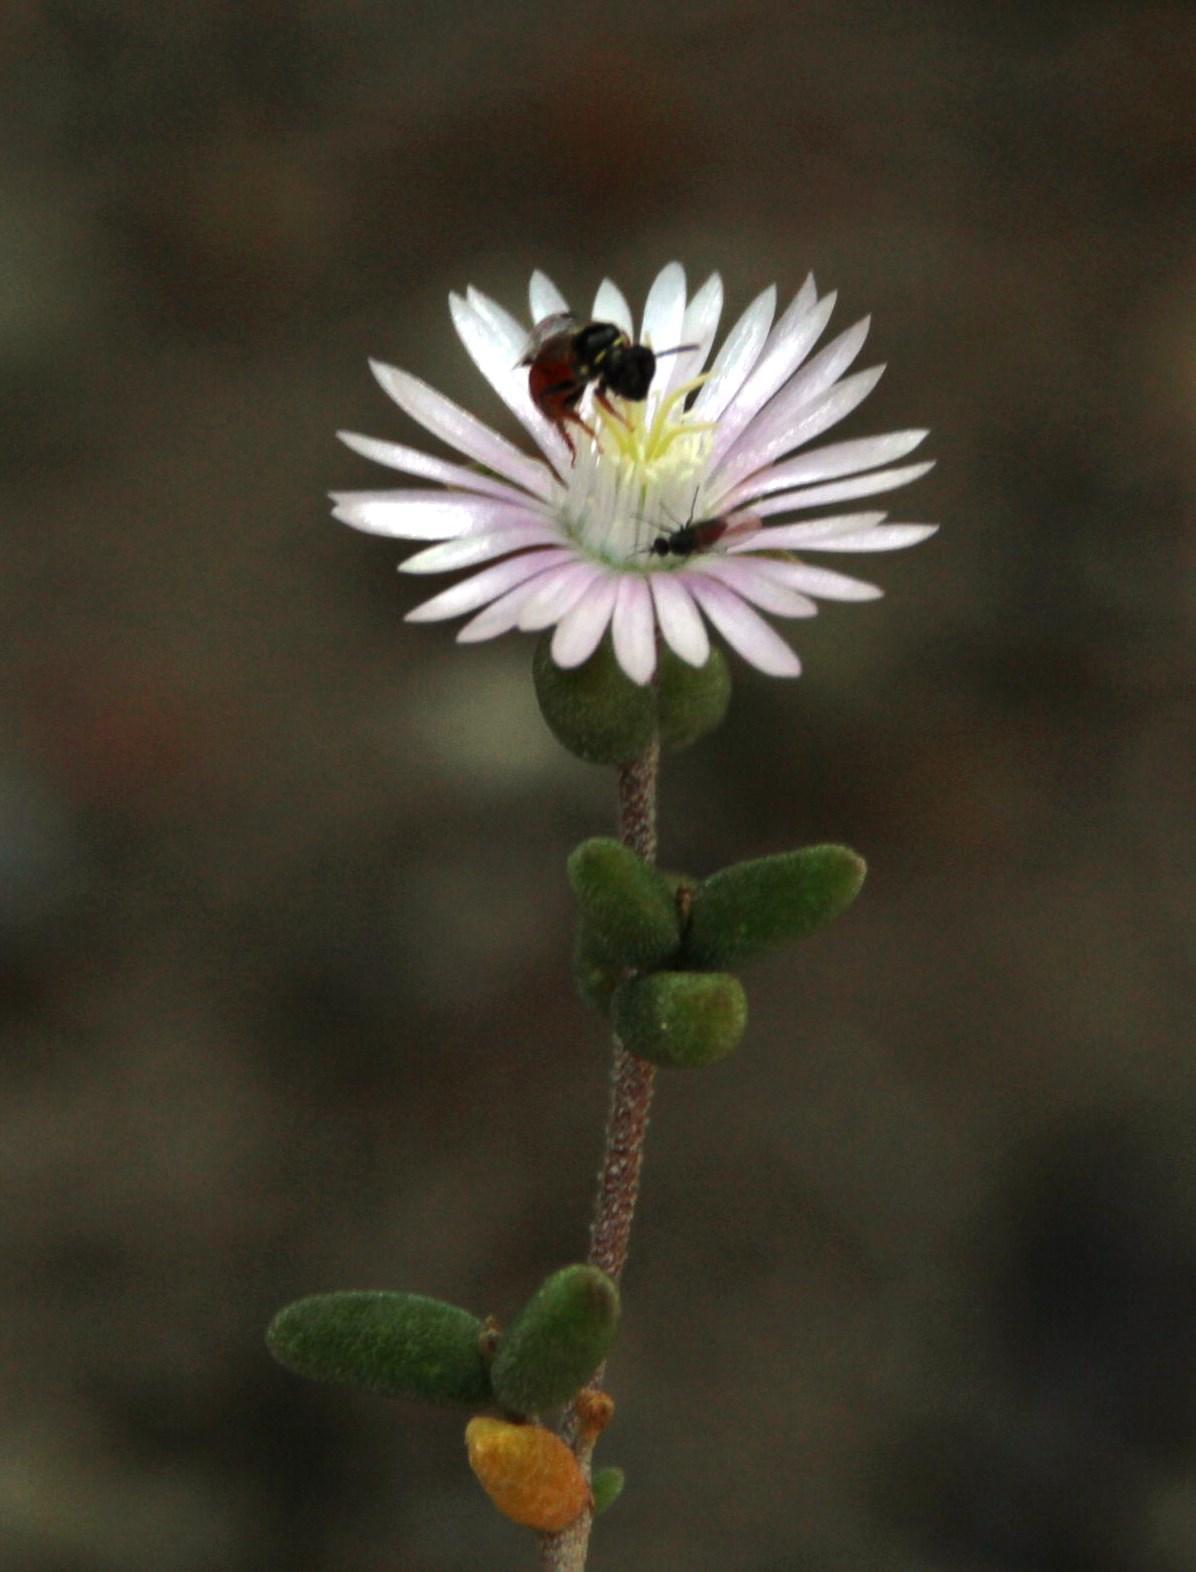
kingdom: Plantae
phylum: Tracheophyta
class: Magnoliopsida
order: Caryophyllales
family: Aizoaceae
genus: Drosanthemum
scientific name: Drosanthemum albiflorum
